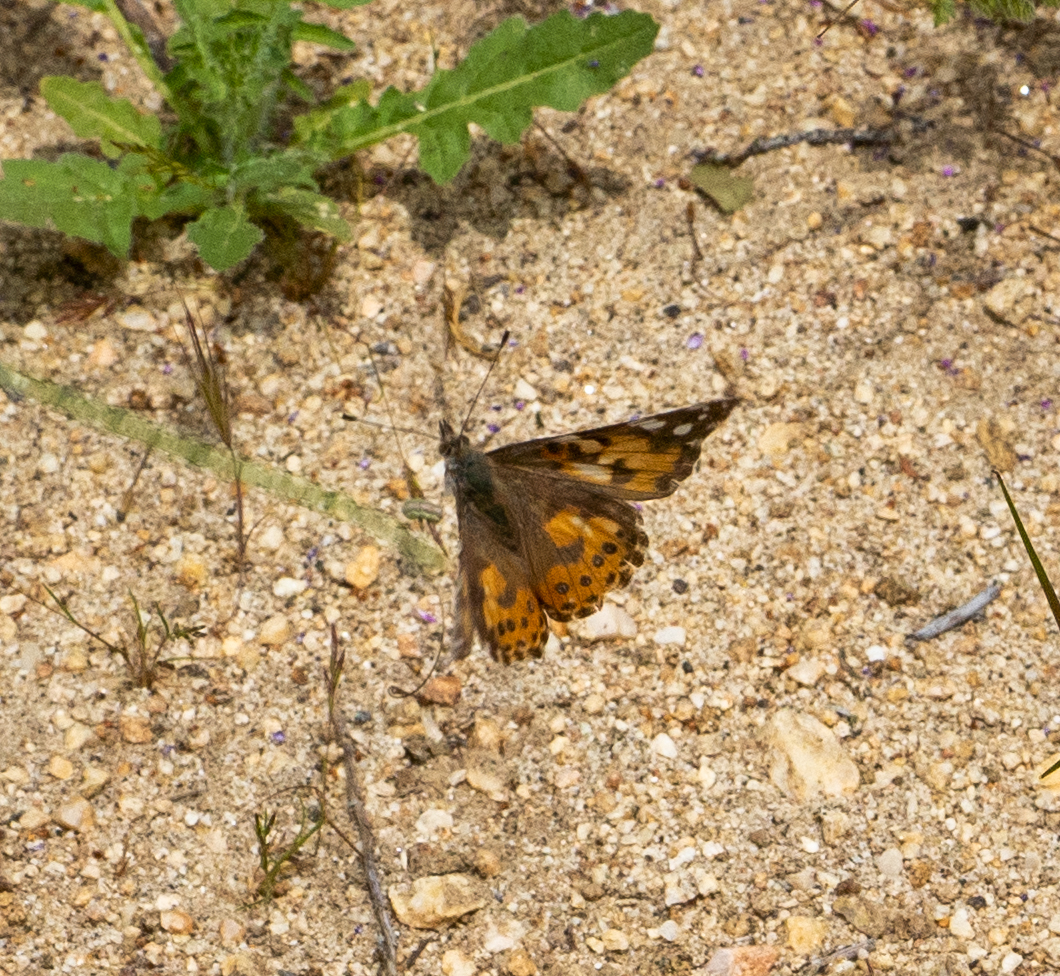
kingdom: Animalia
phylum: Arthropoda
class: Insecta
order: Lepidoptera
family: Nymphalidae
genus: Vanessa
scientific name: Vanessa cardui
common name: Painted lady
